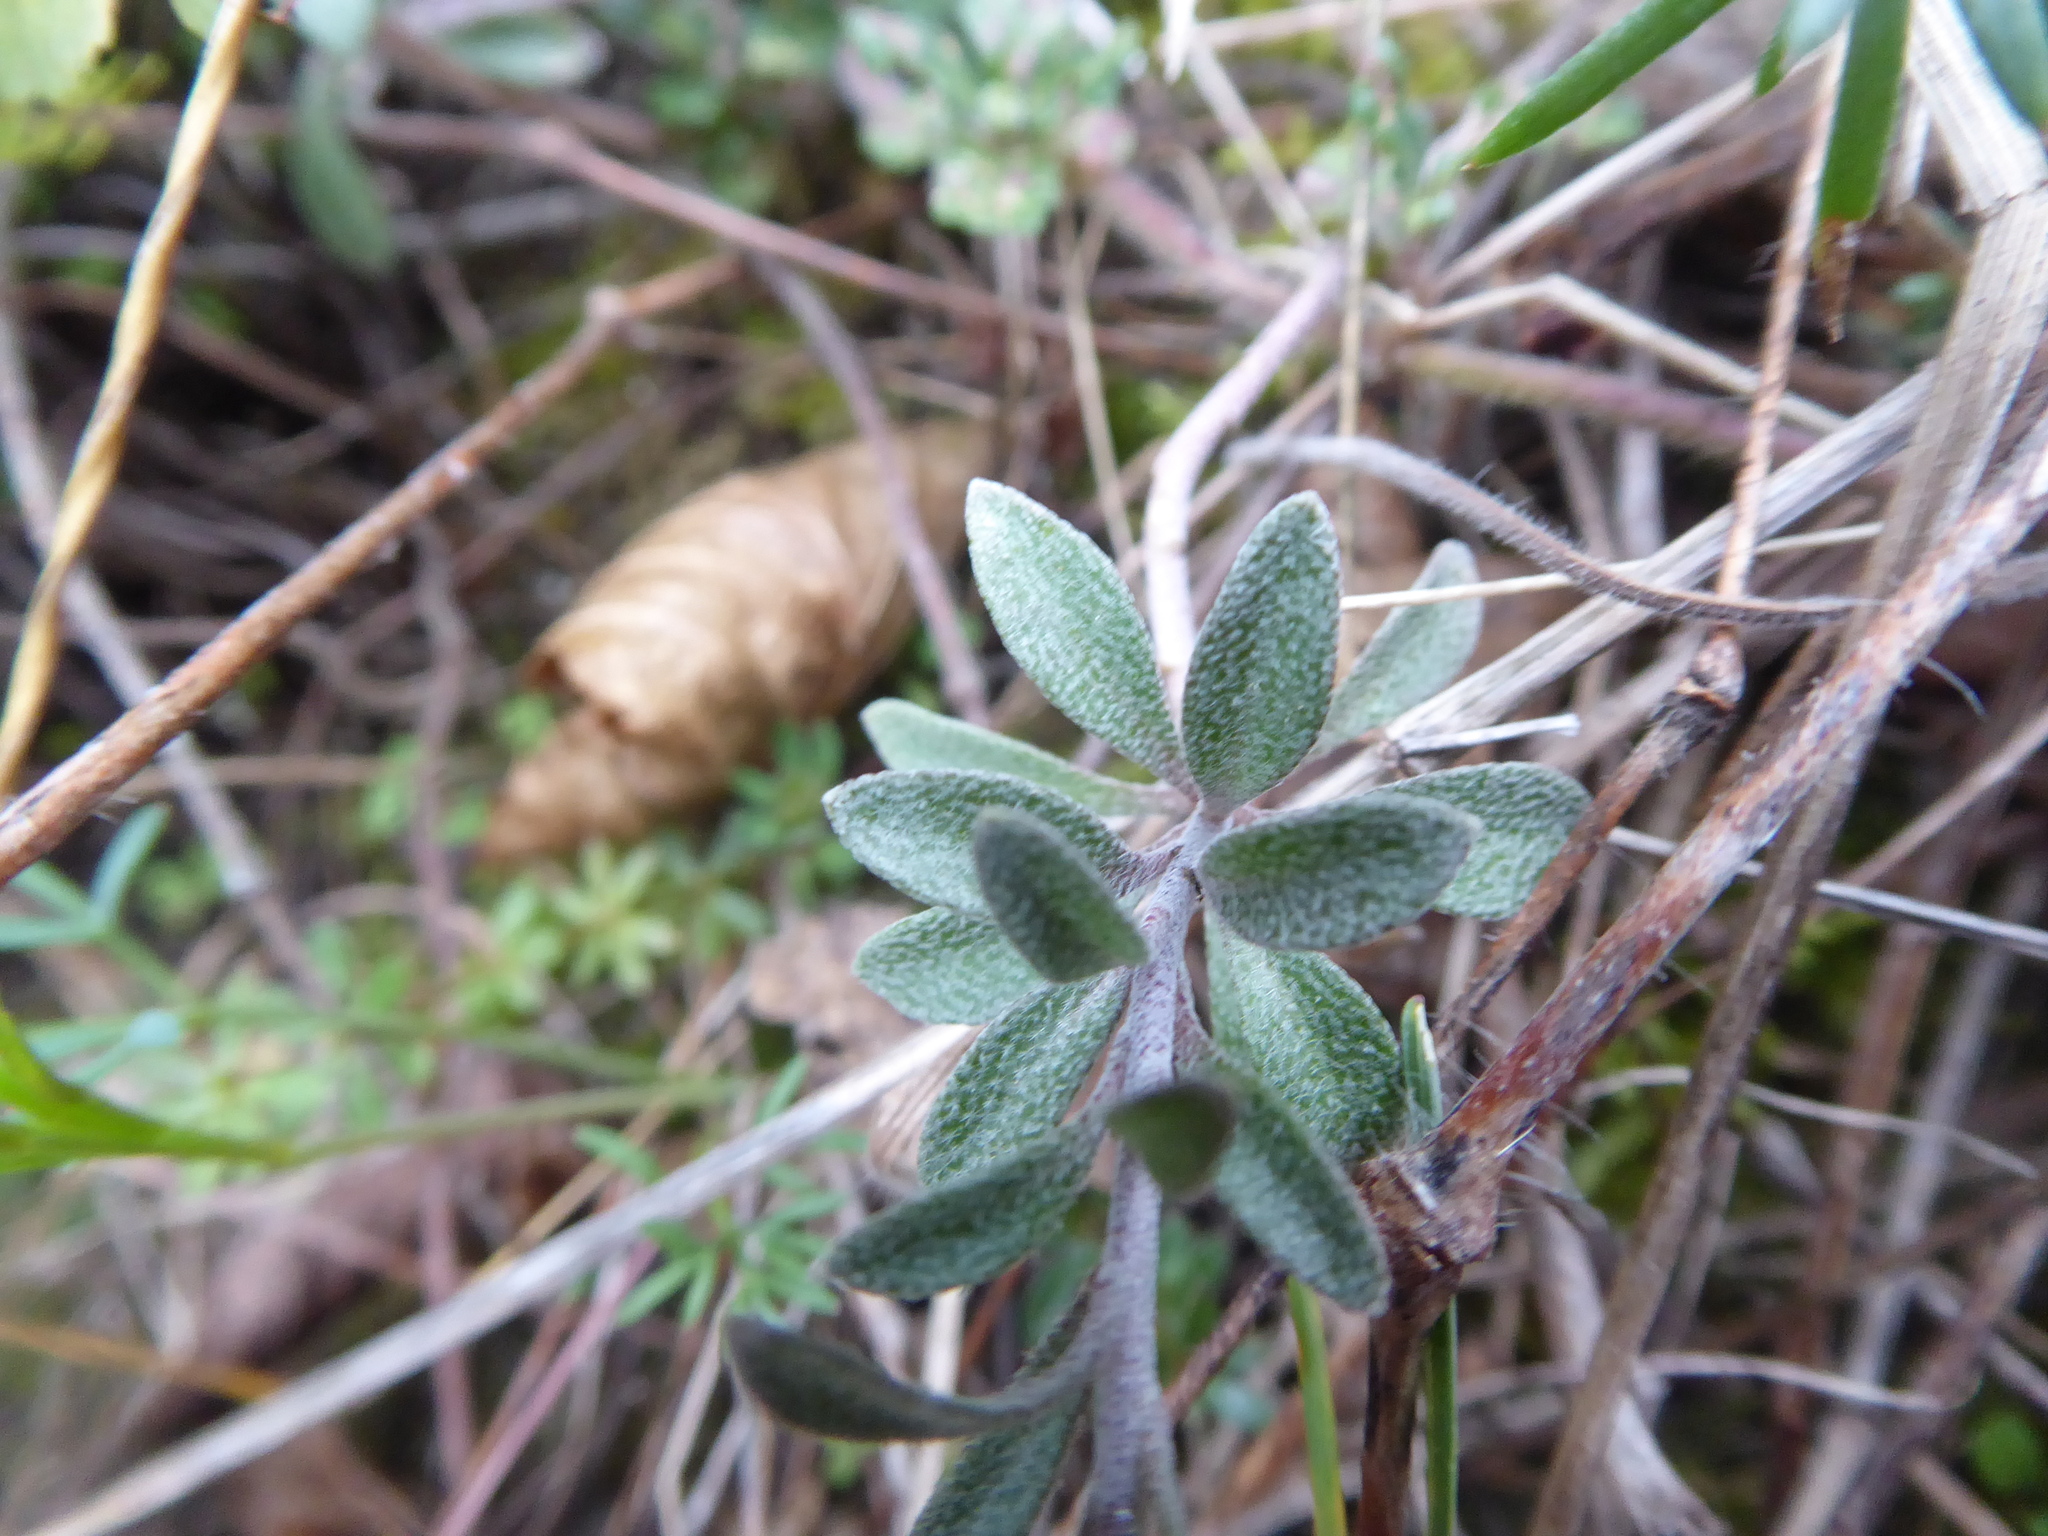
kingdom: Plantae
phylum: Tracheophyta
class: Magnoliopsida
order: Brassicales
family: Brassicaceae
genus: Alyssum
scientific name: Alyssum gmelinii
